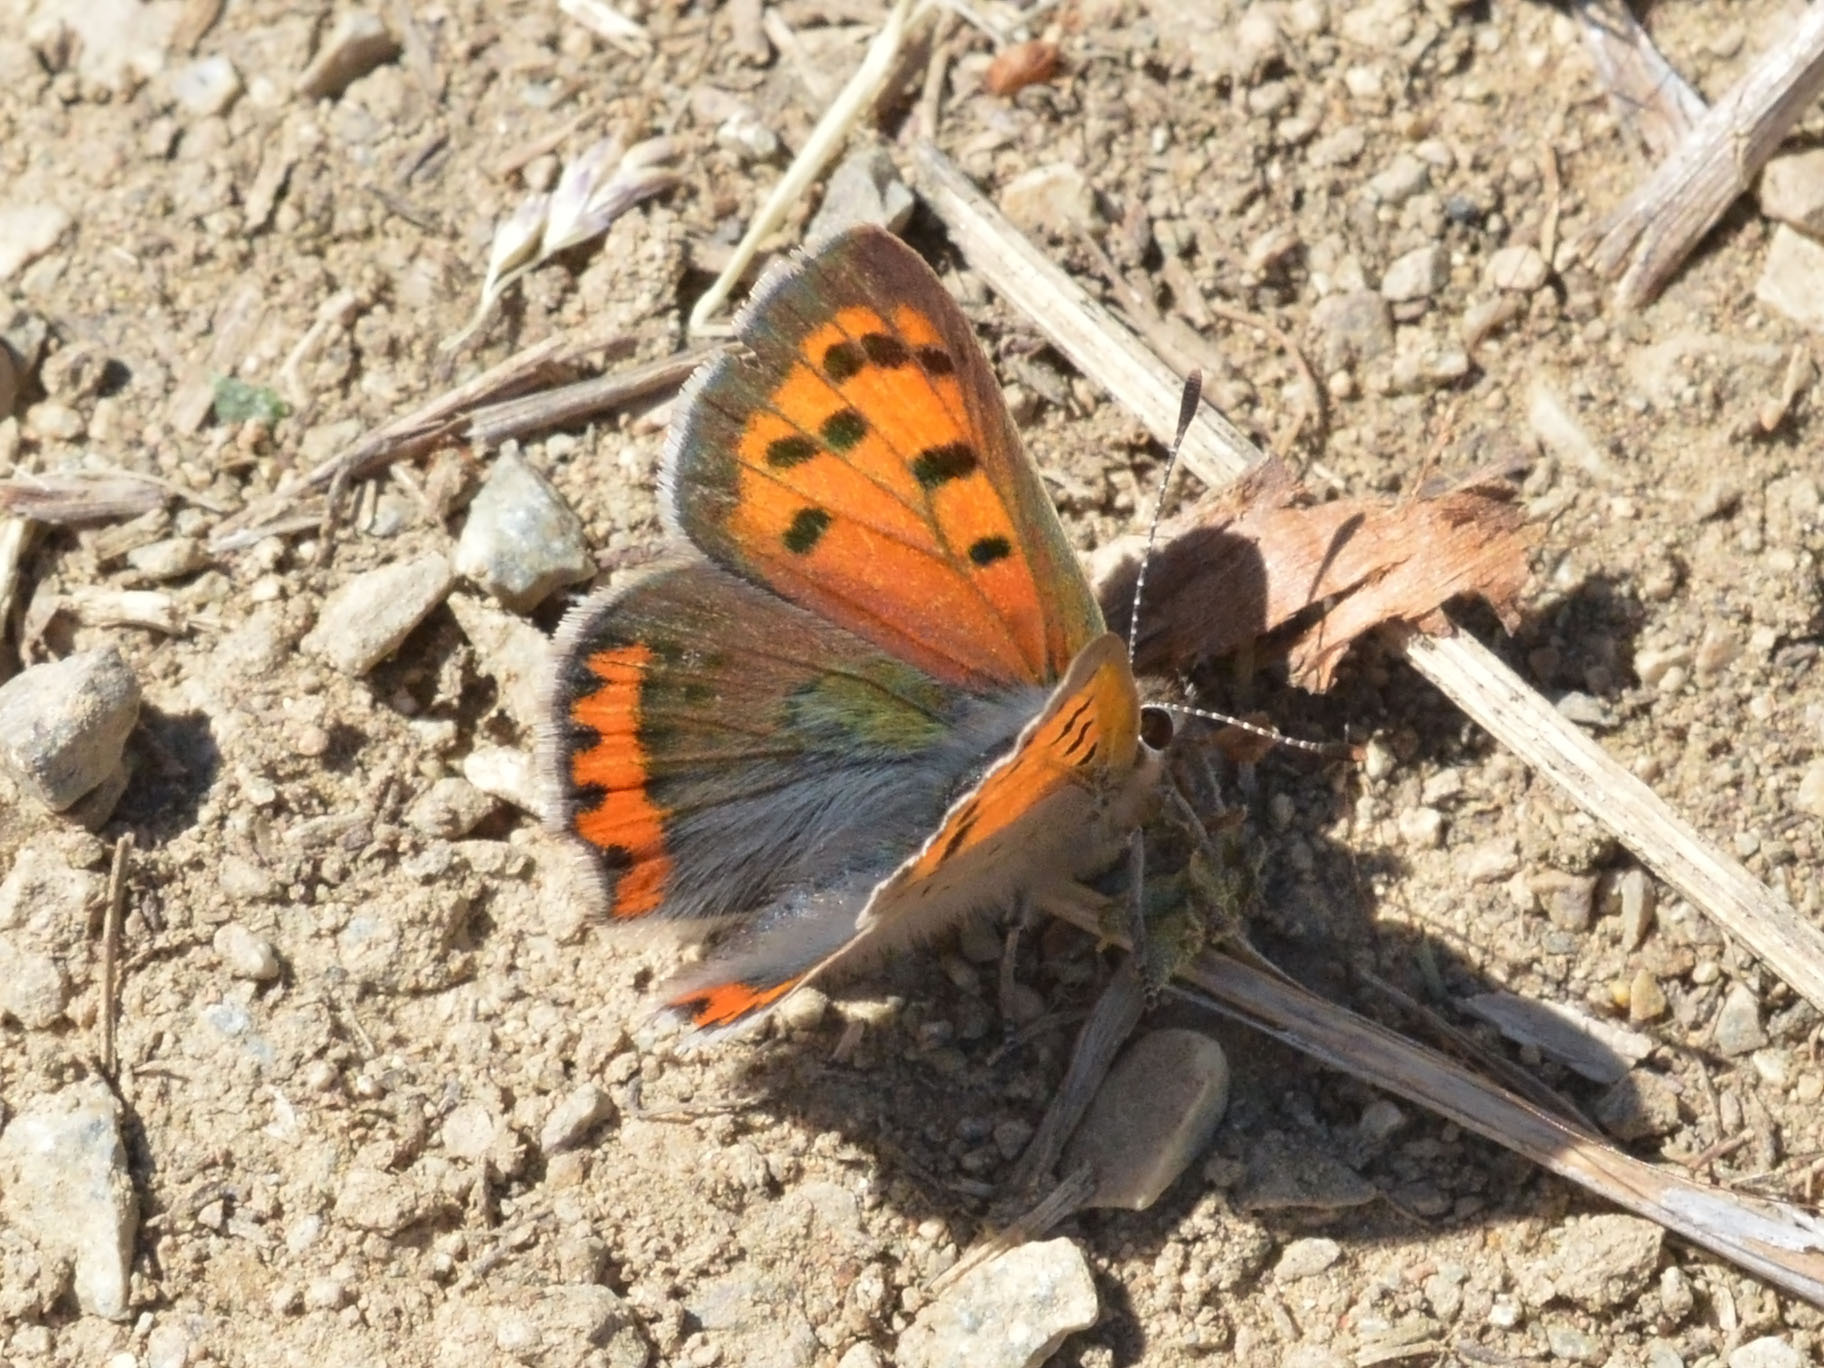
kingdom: Animalia
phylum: Arthropoda
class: Insecta
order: Lepidoptera
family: Lycaenidae
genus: Lycaena
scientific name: Lycaena phlaeas
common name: Small copper
